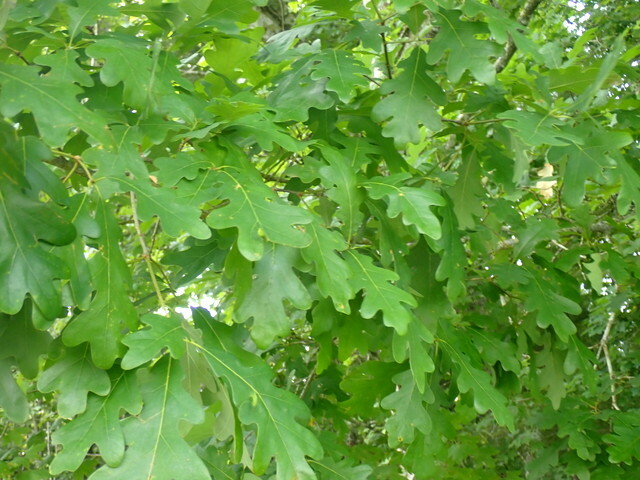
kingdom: Plantae
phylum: Tracheophyta
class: Magnoliopsida
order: Fagales
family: Fagaceae
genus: Quercus
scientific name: Quercus alba
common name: White oak
